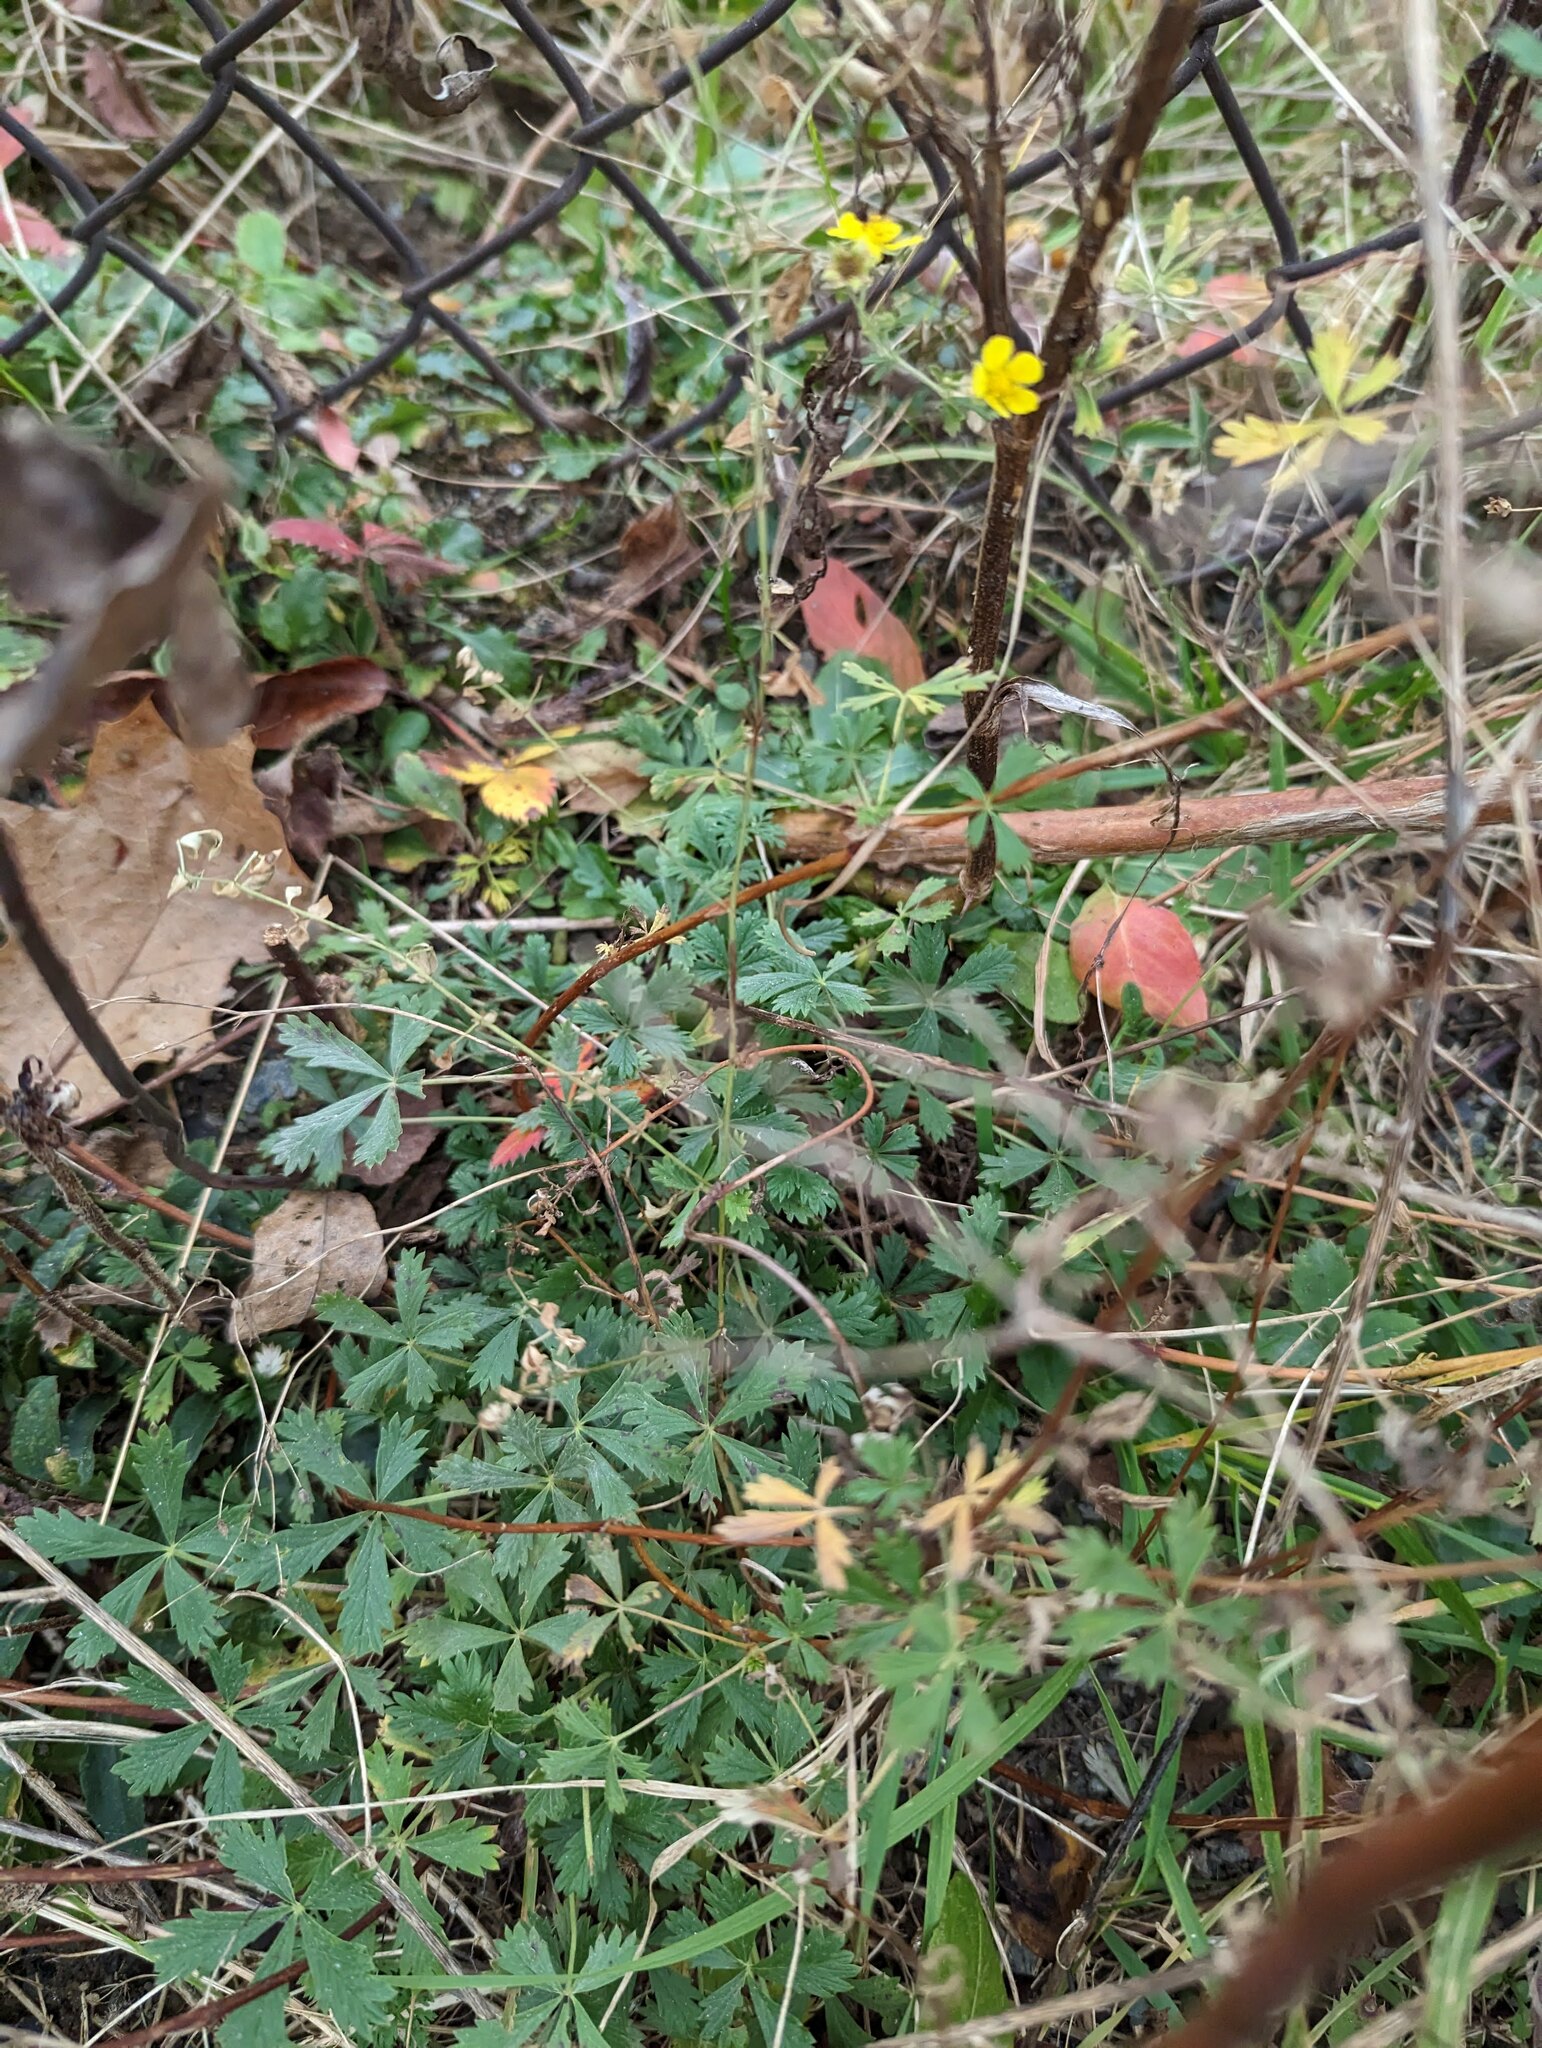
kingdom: Plantae
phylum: Tracheophyta
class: Magnoliopsida
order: Rosales
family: Rosaceae
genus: Potentilla
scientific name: Potentilla argentea
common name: Hoary cinquefoil
